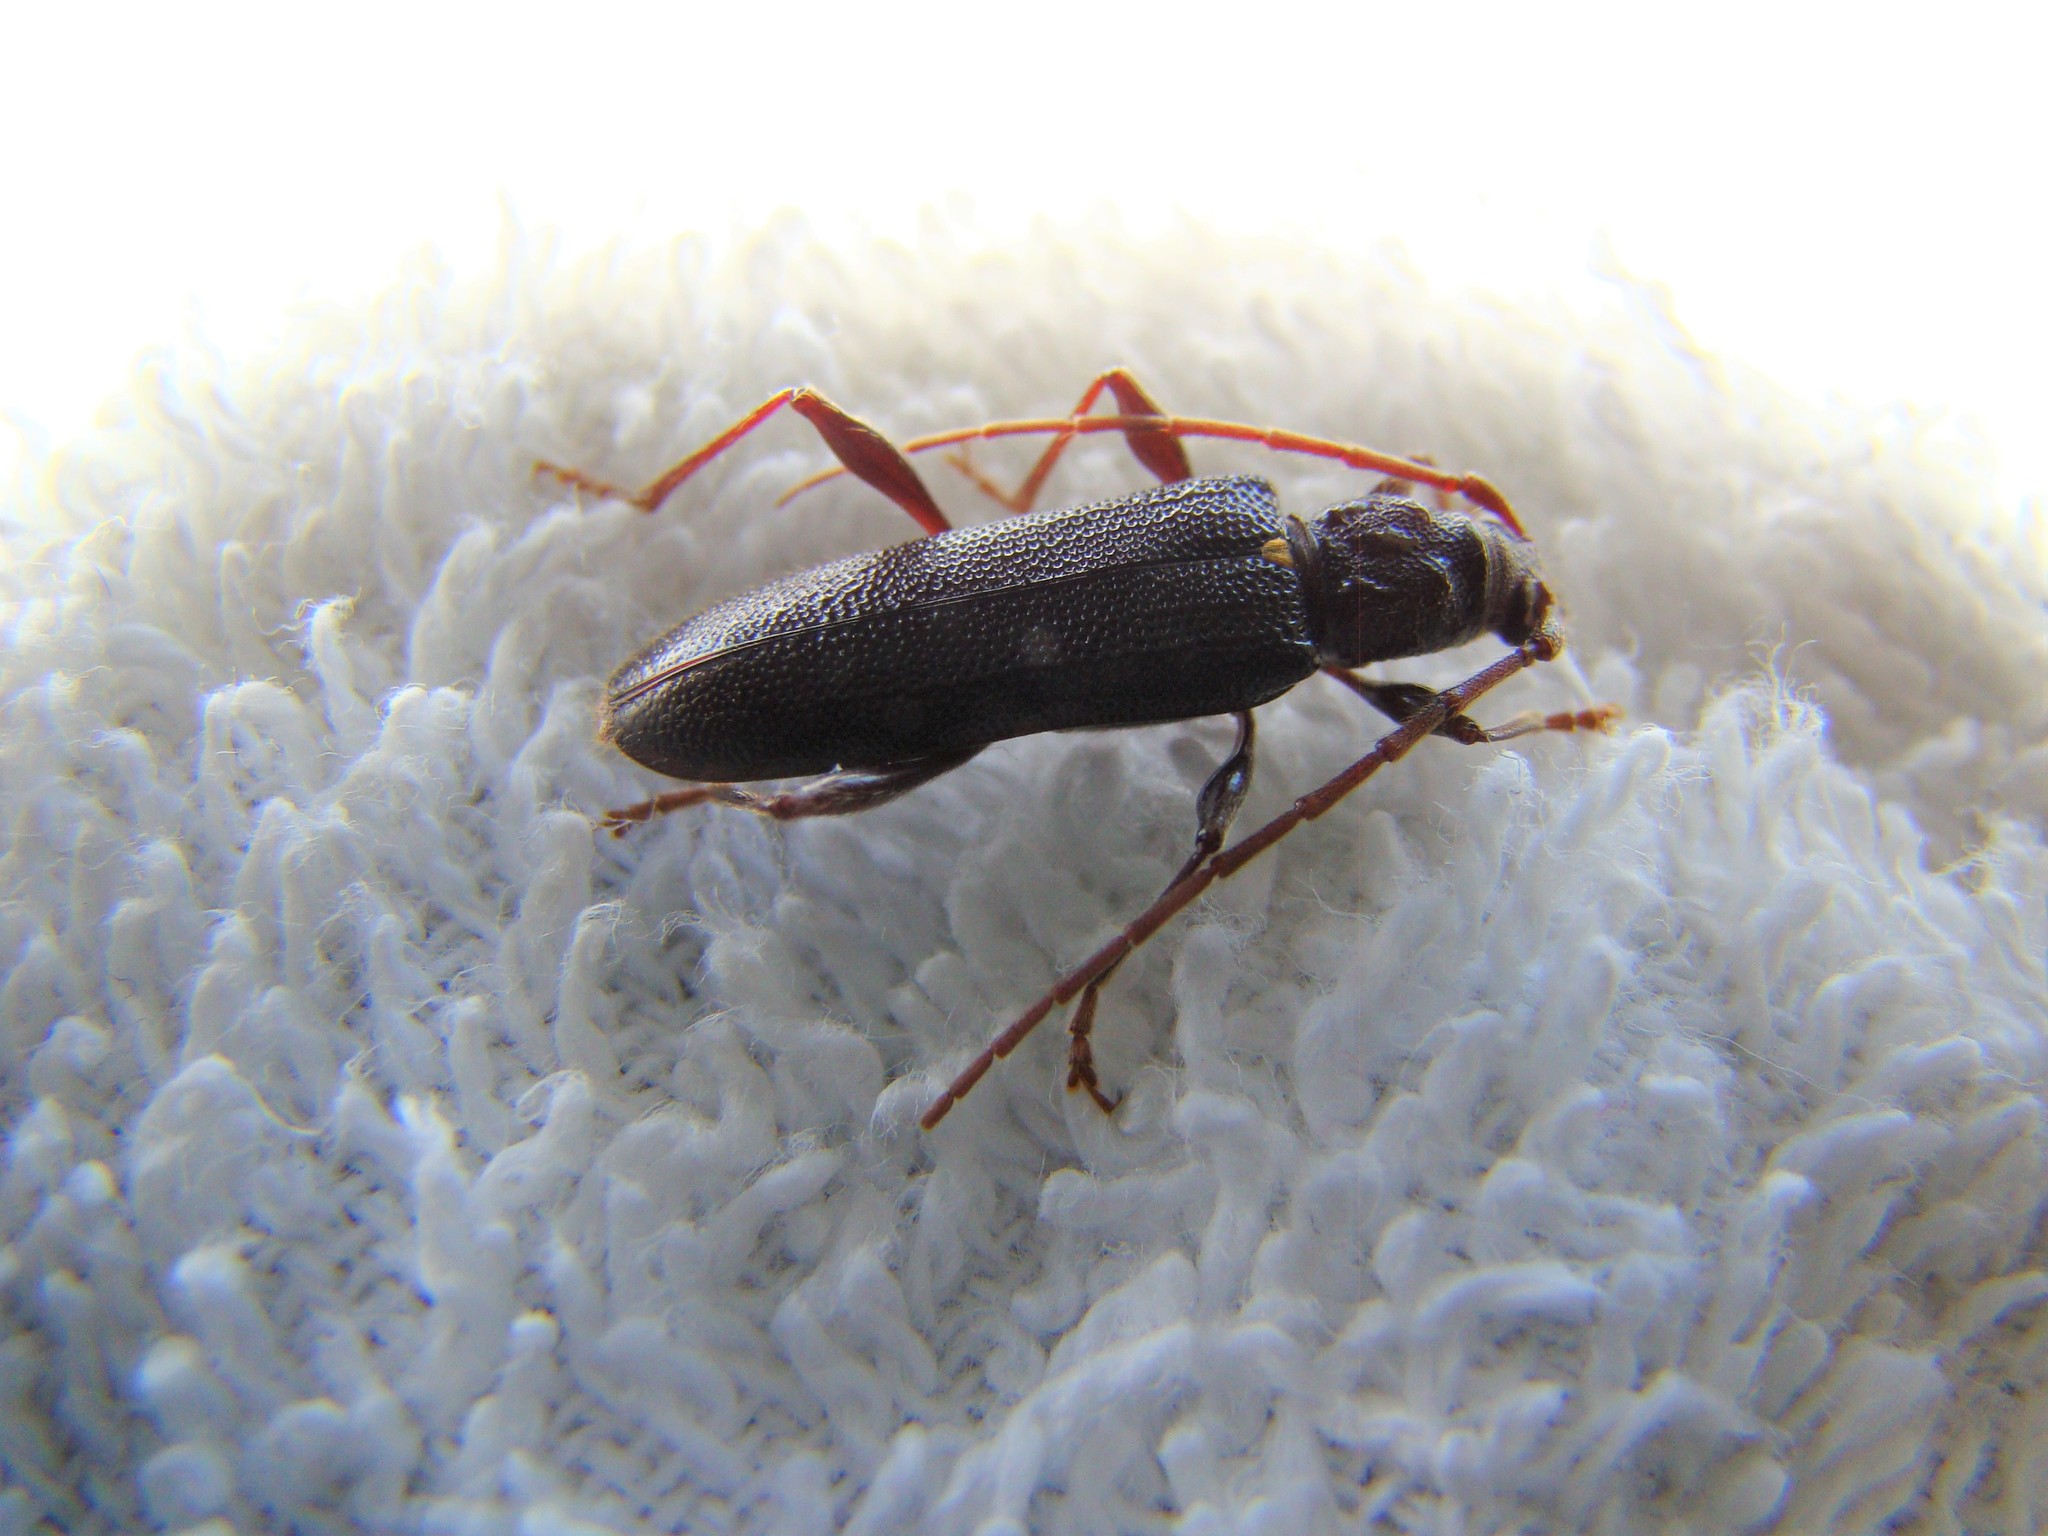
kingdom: Animalia
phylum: Arthropoda
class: Insecta
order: Coleoptera
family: Cerambycidae
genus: Callidiopis
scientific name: Callidiopis scutellaris
